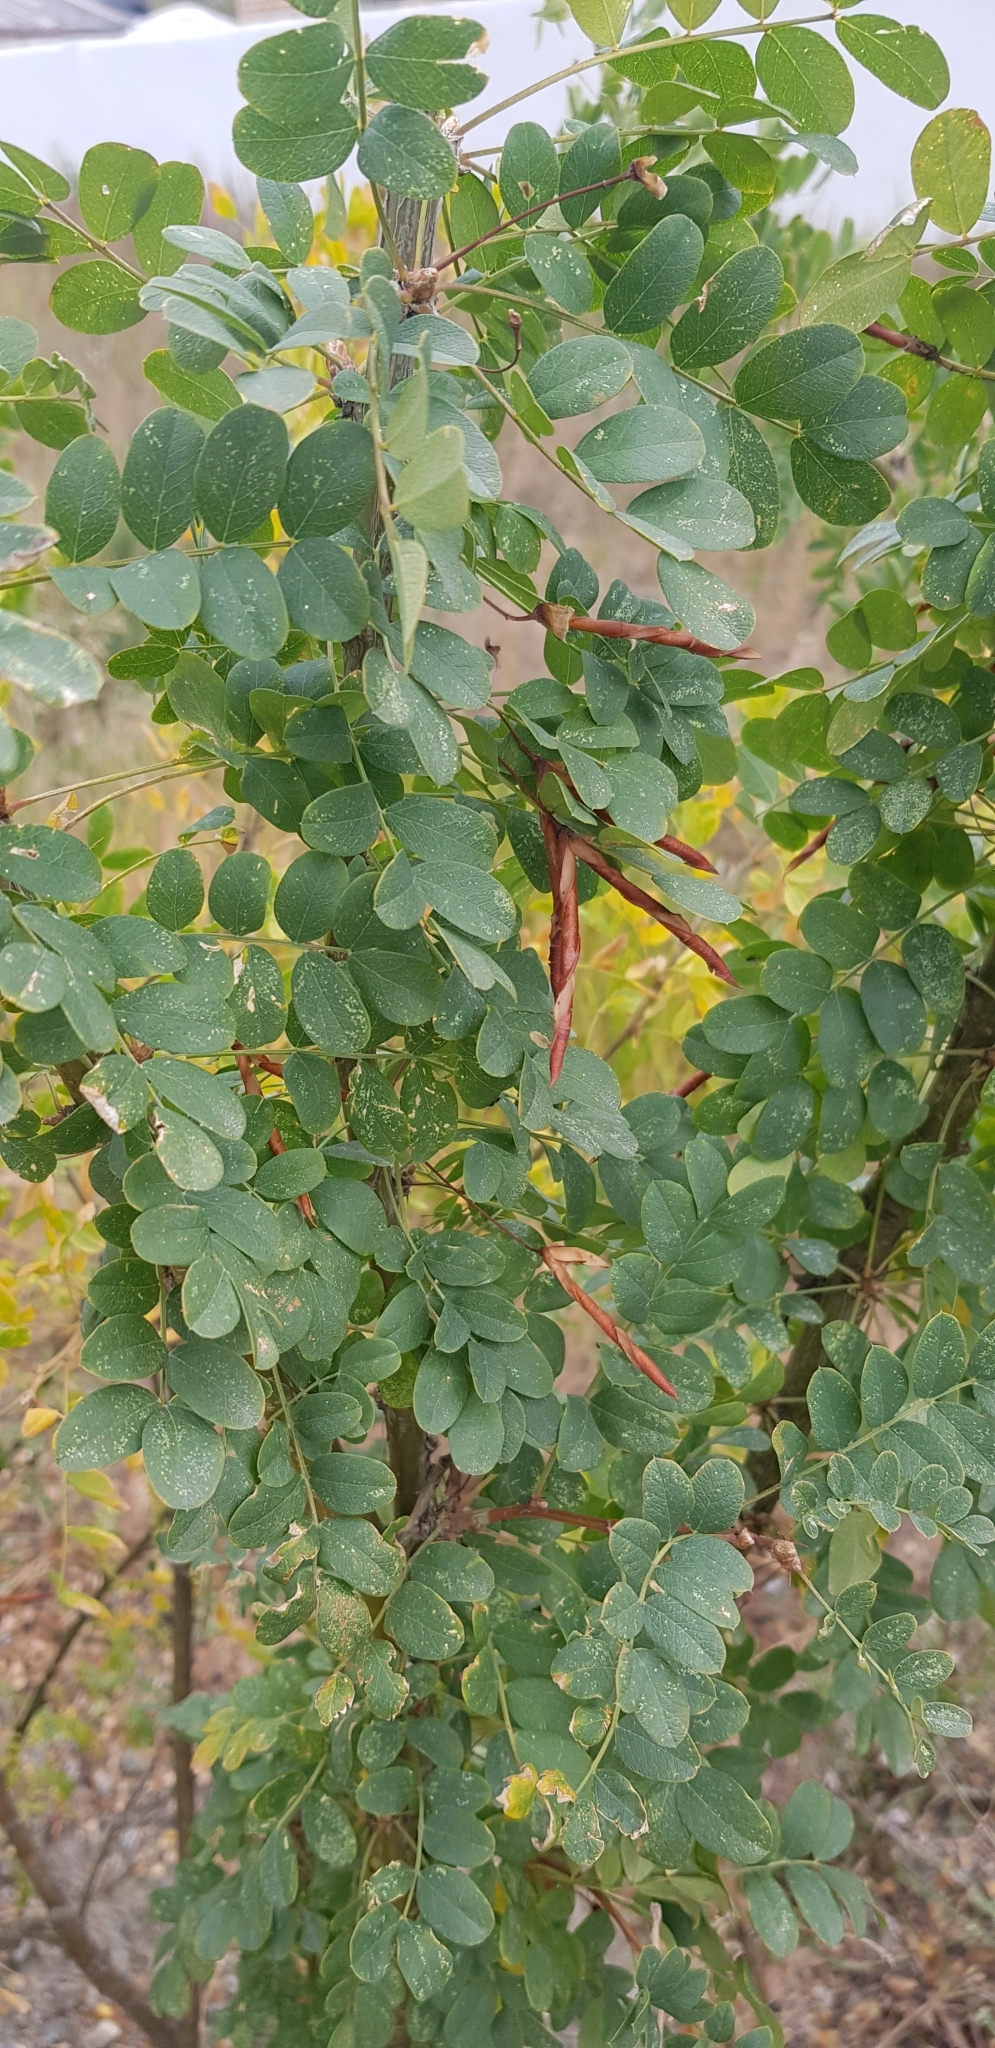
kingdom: Plantae
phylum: Tracheophyta
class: Magnoliopsida
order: Fabales
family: Fabaceae
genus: Caragana
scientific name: Caragana arborescens
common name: Siberian peashrub
